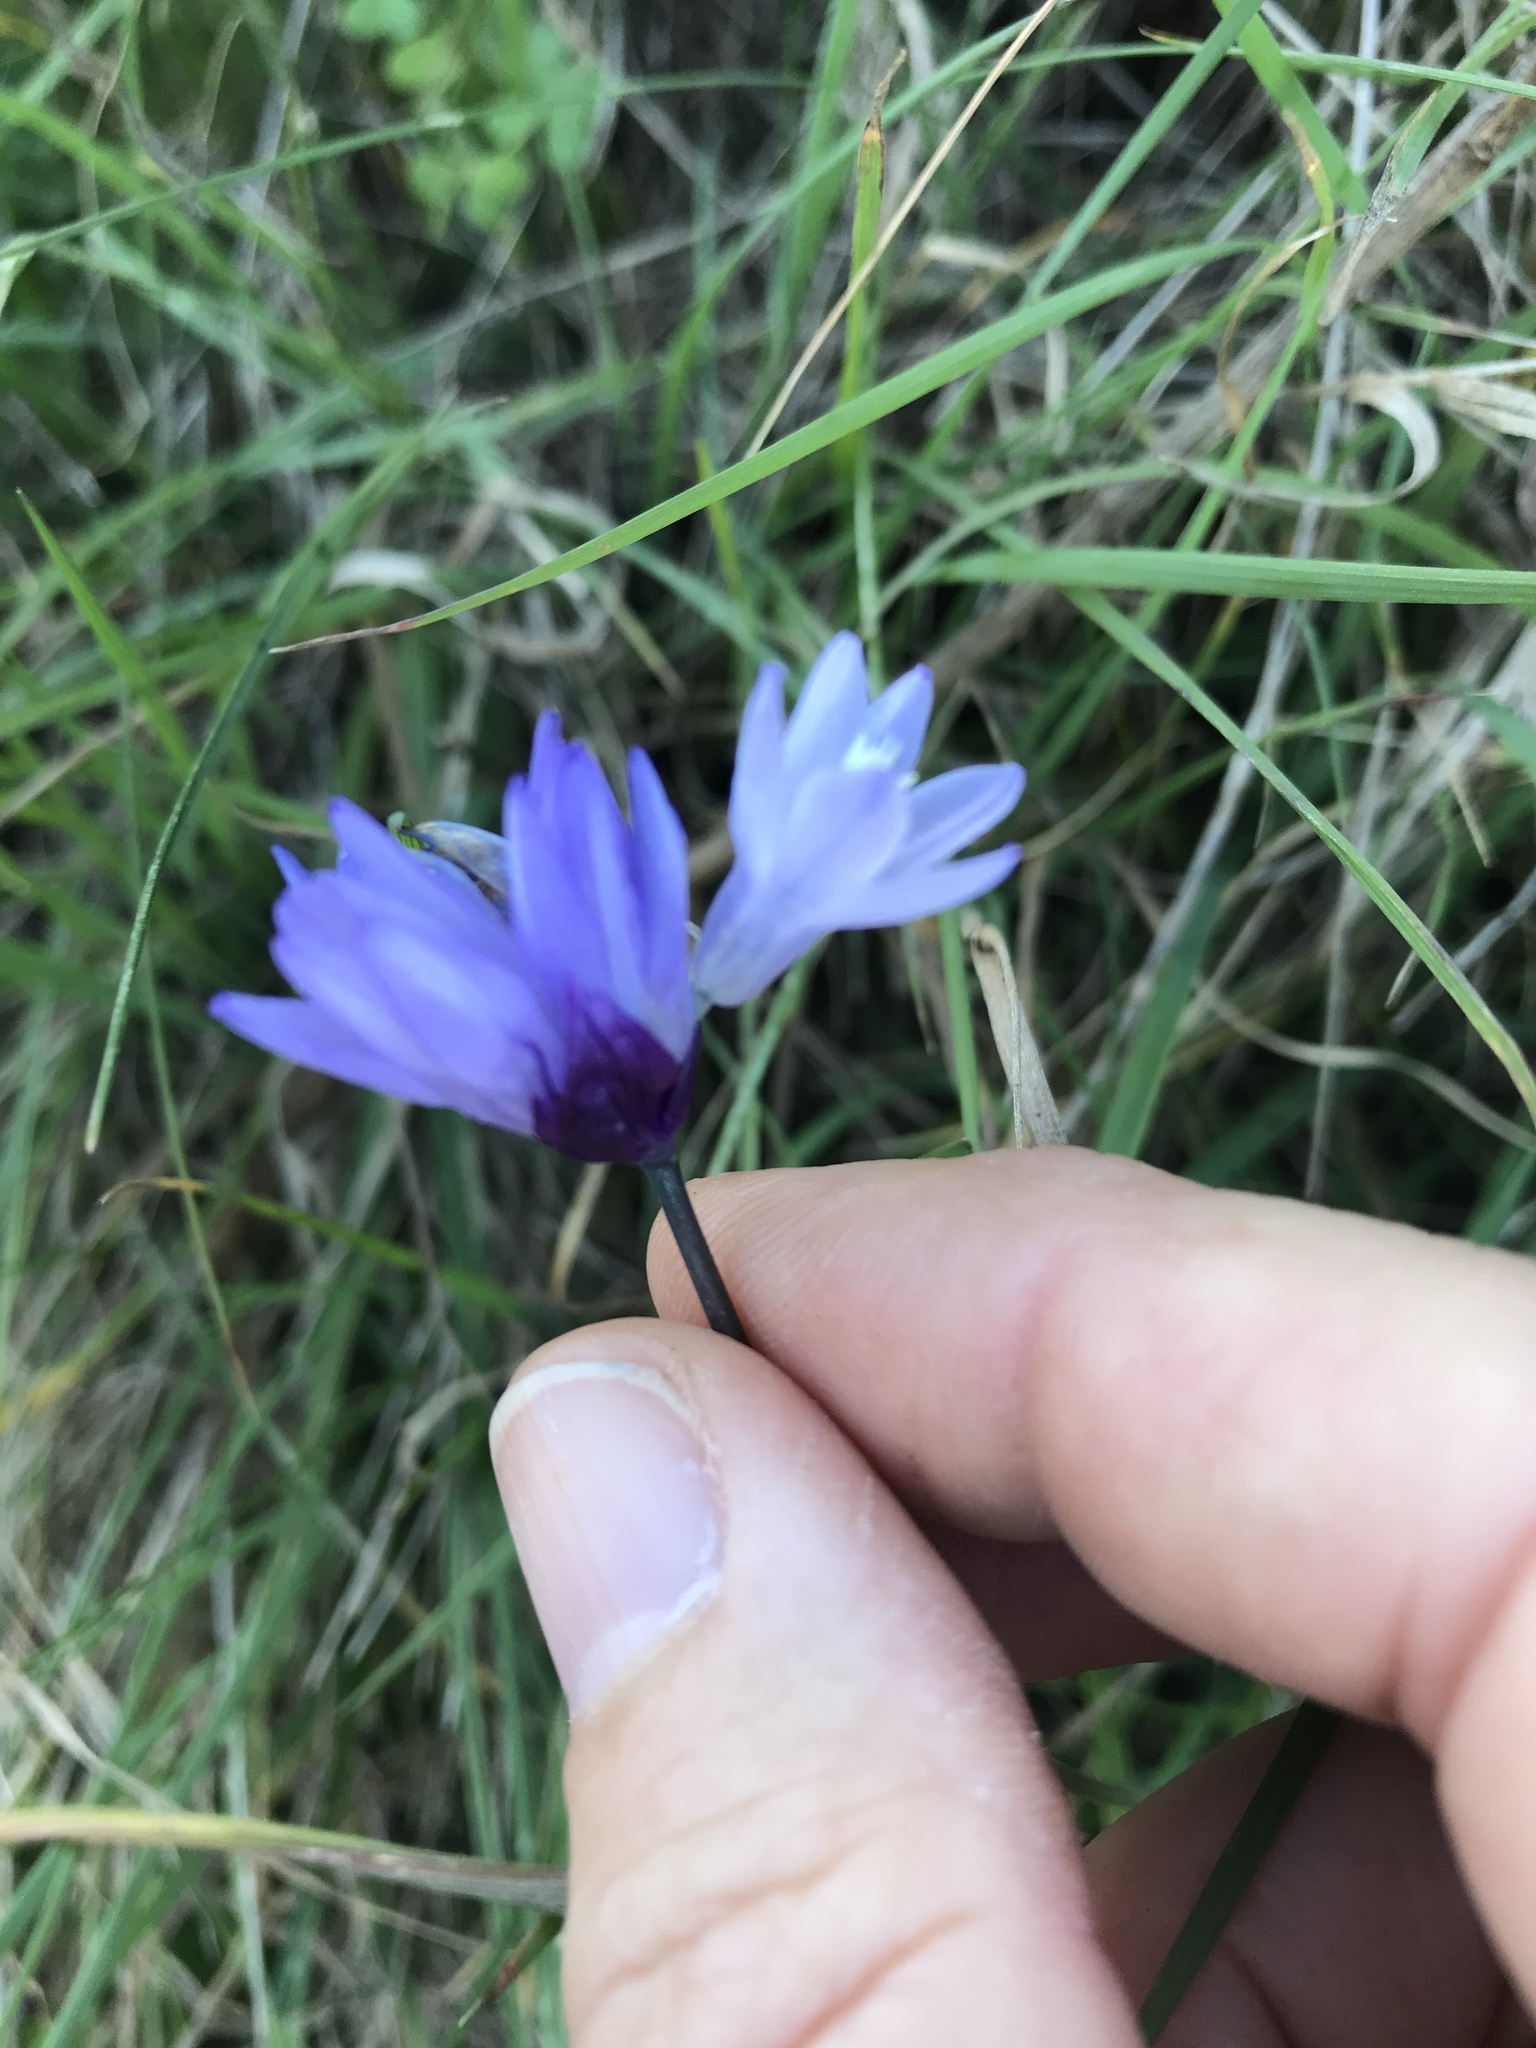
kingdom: Plantae
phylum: Tracheophyta
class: Liliopsida
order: Asparagales
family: Asparagaceae
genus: Dipterostemon
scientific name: Dipterostemon capitatus
